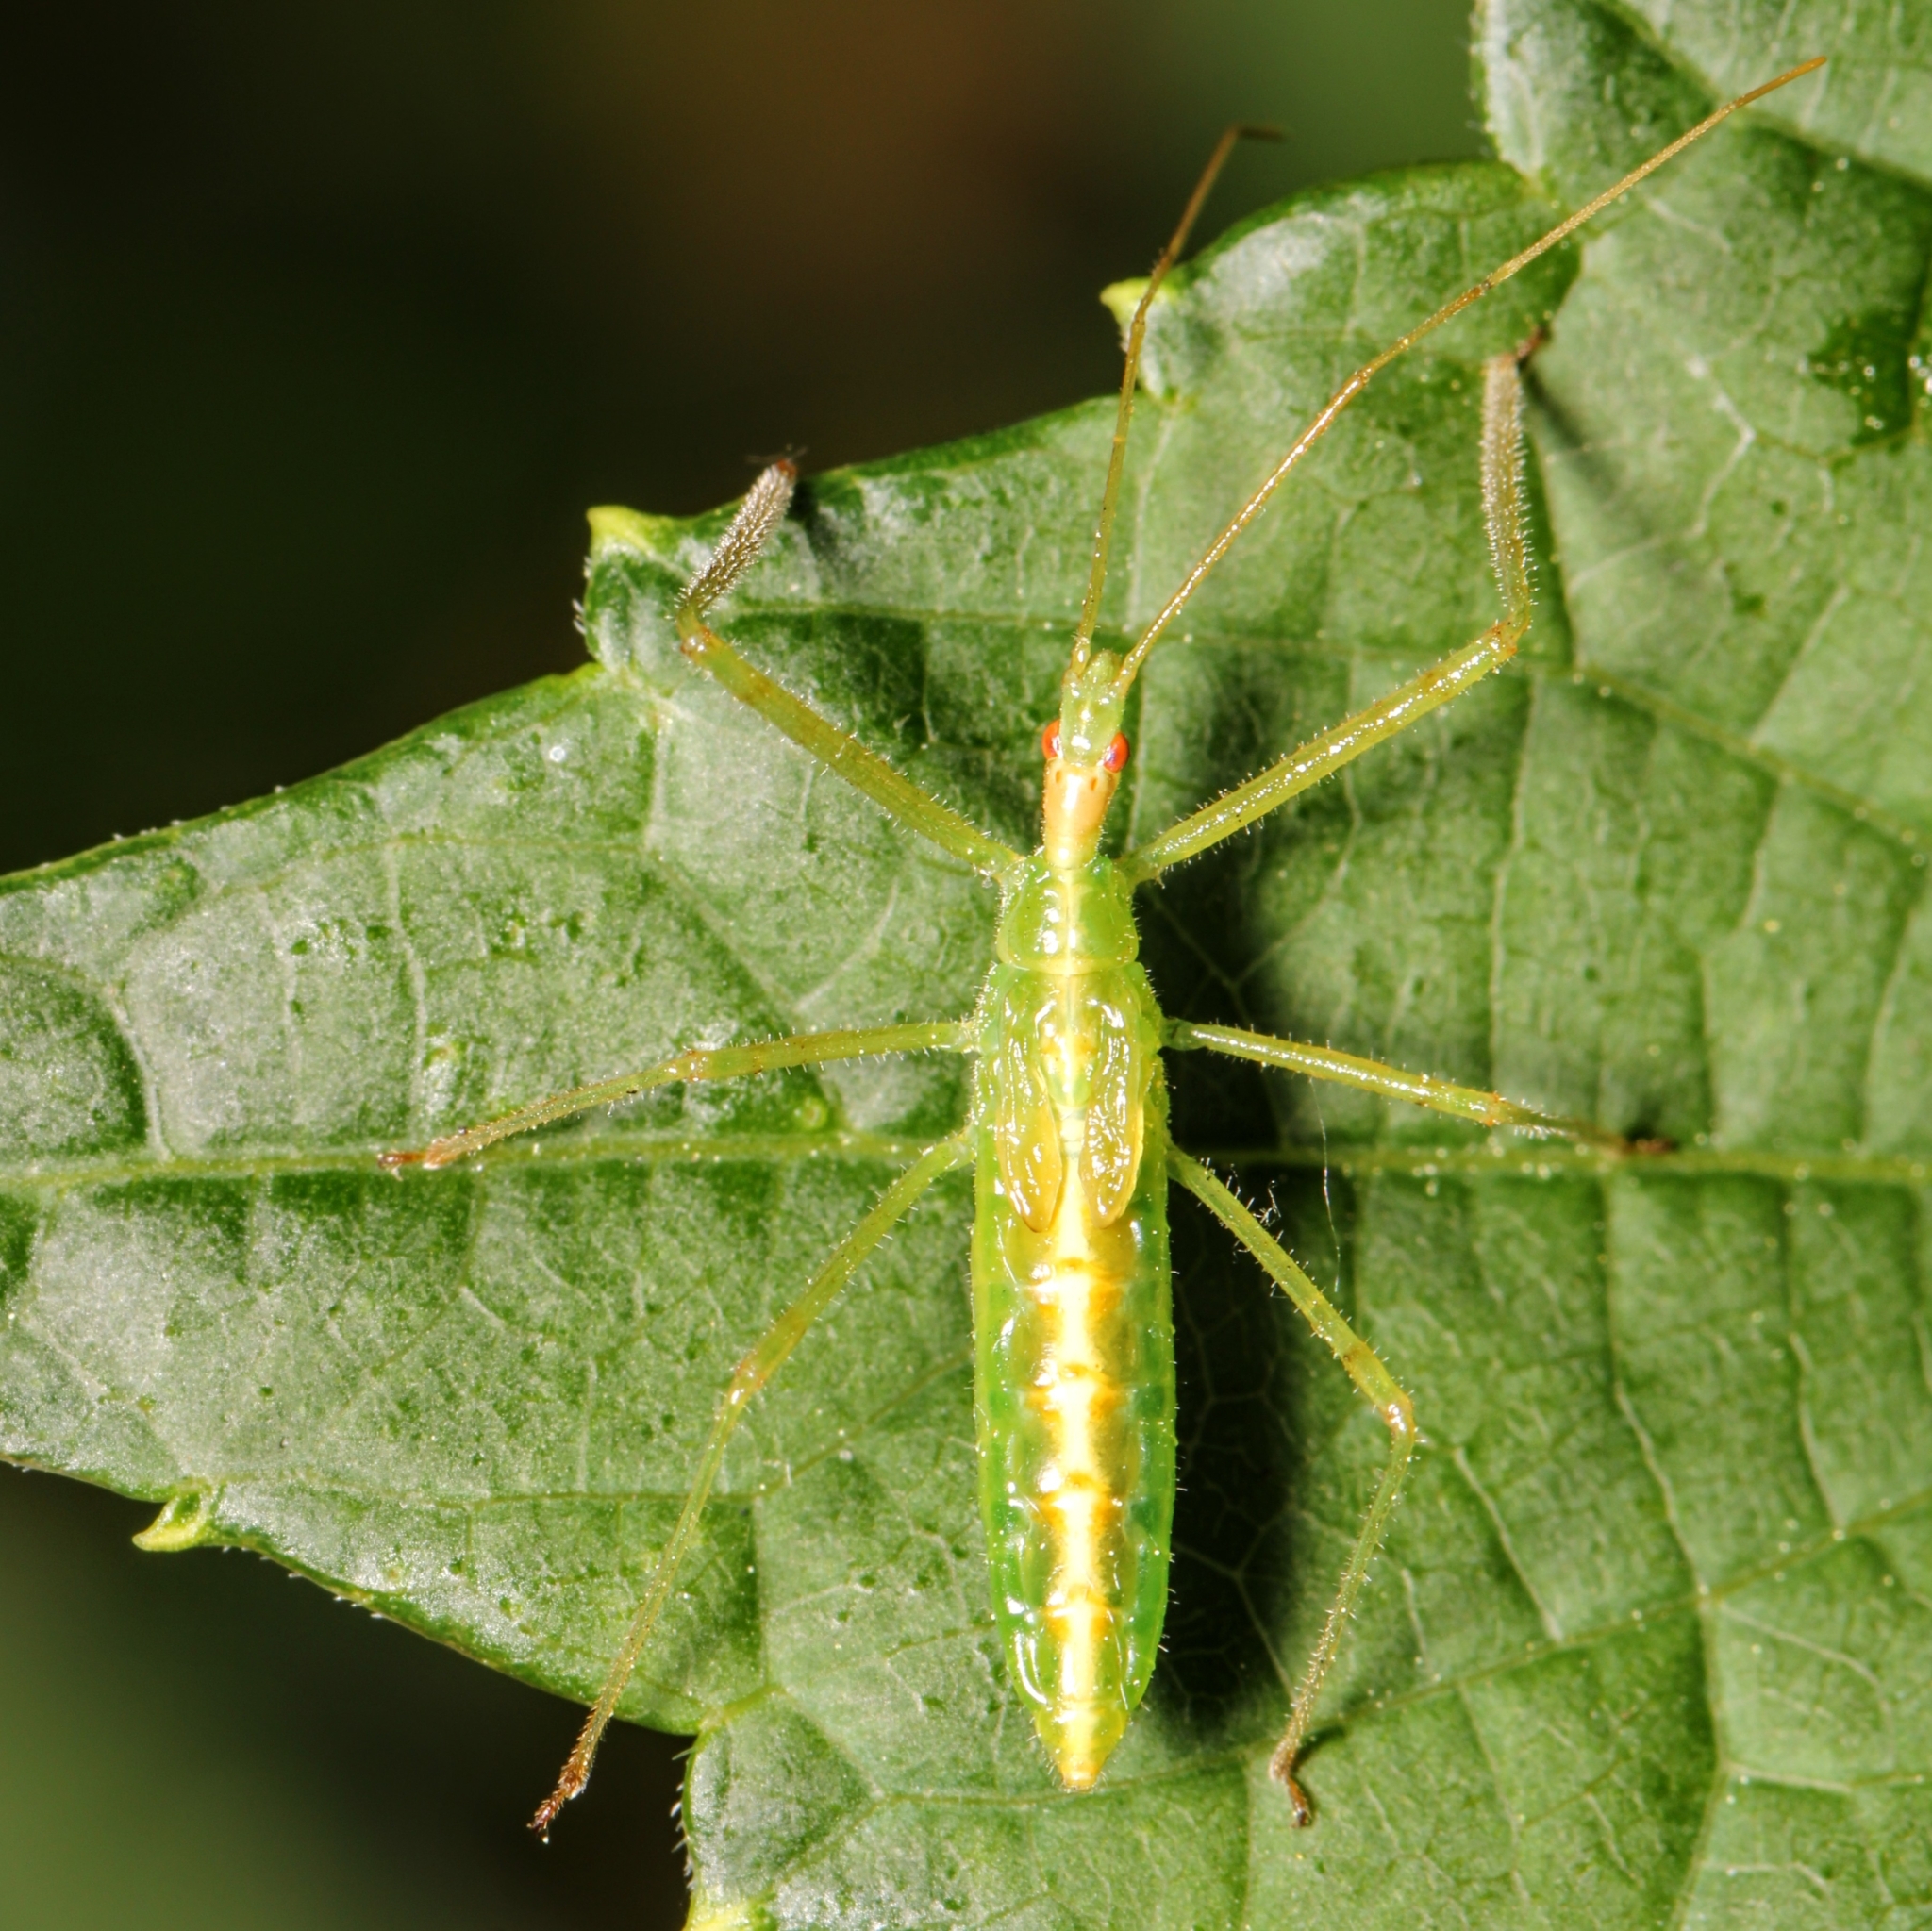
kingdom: Animalia
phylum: Arthropoda
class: Insecta
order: Hemiptera
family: Reduviidae
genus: Zelus
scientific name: Zelus luridus
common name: Pale green assassin bug
